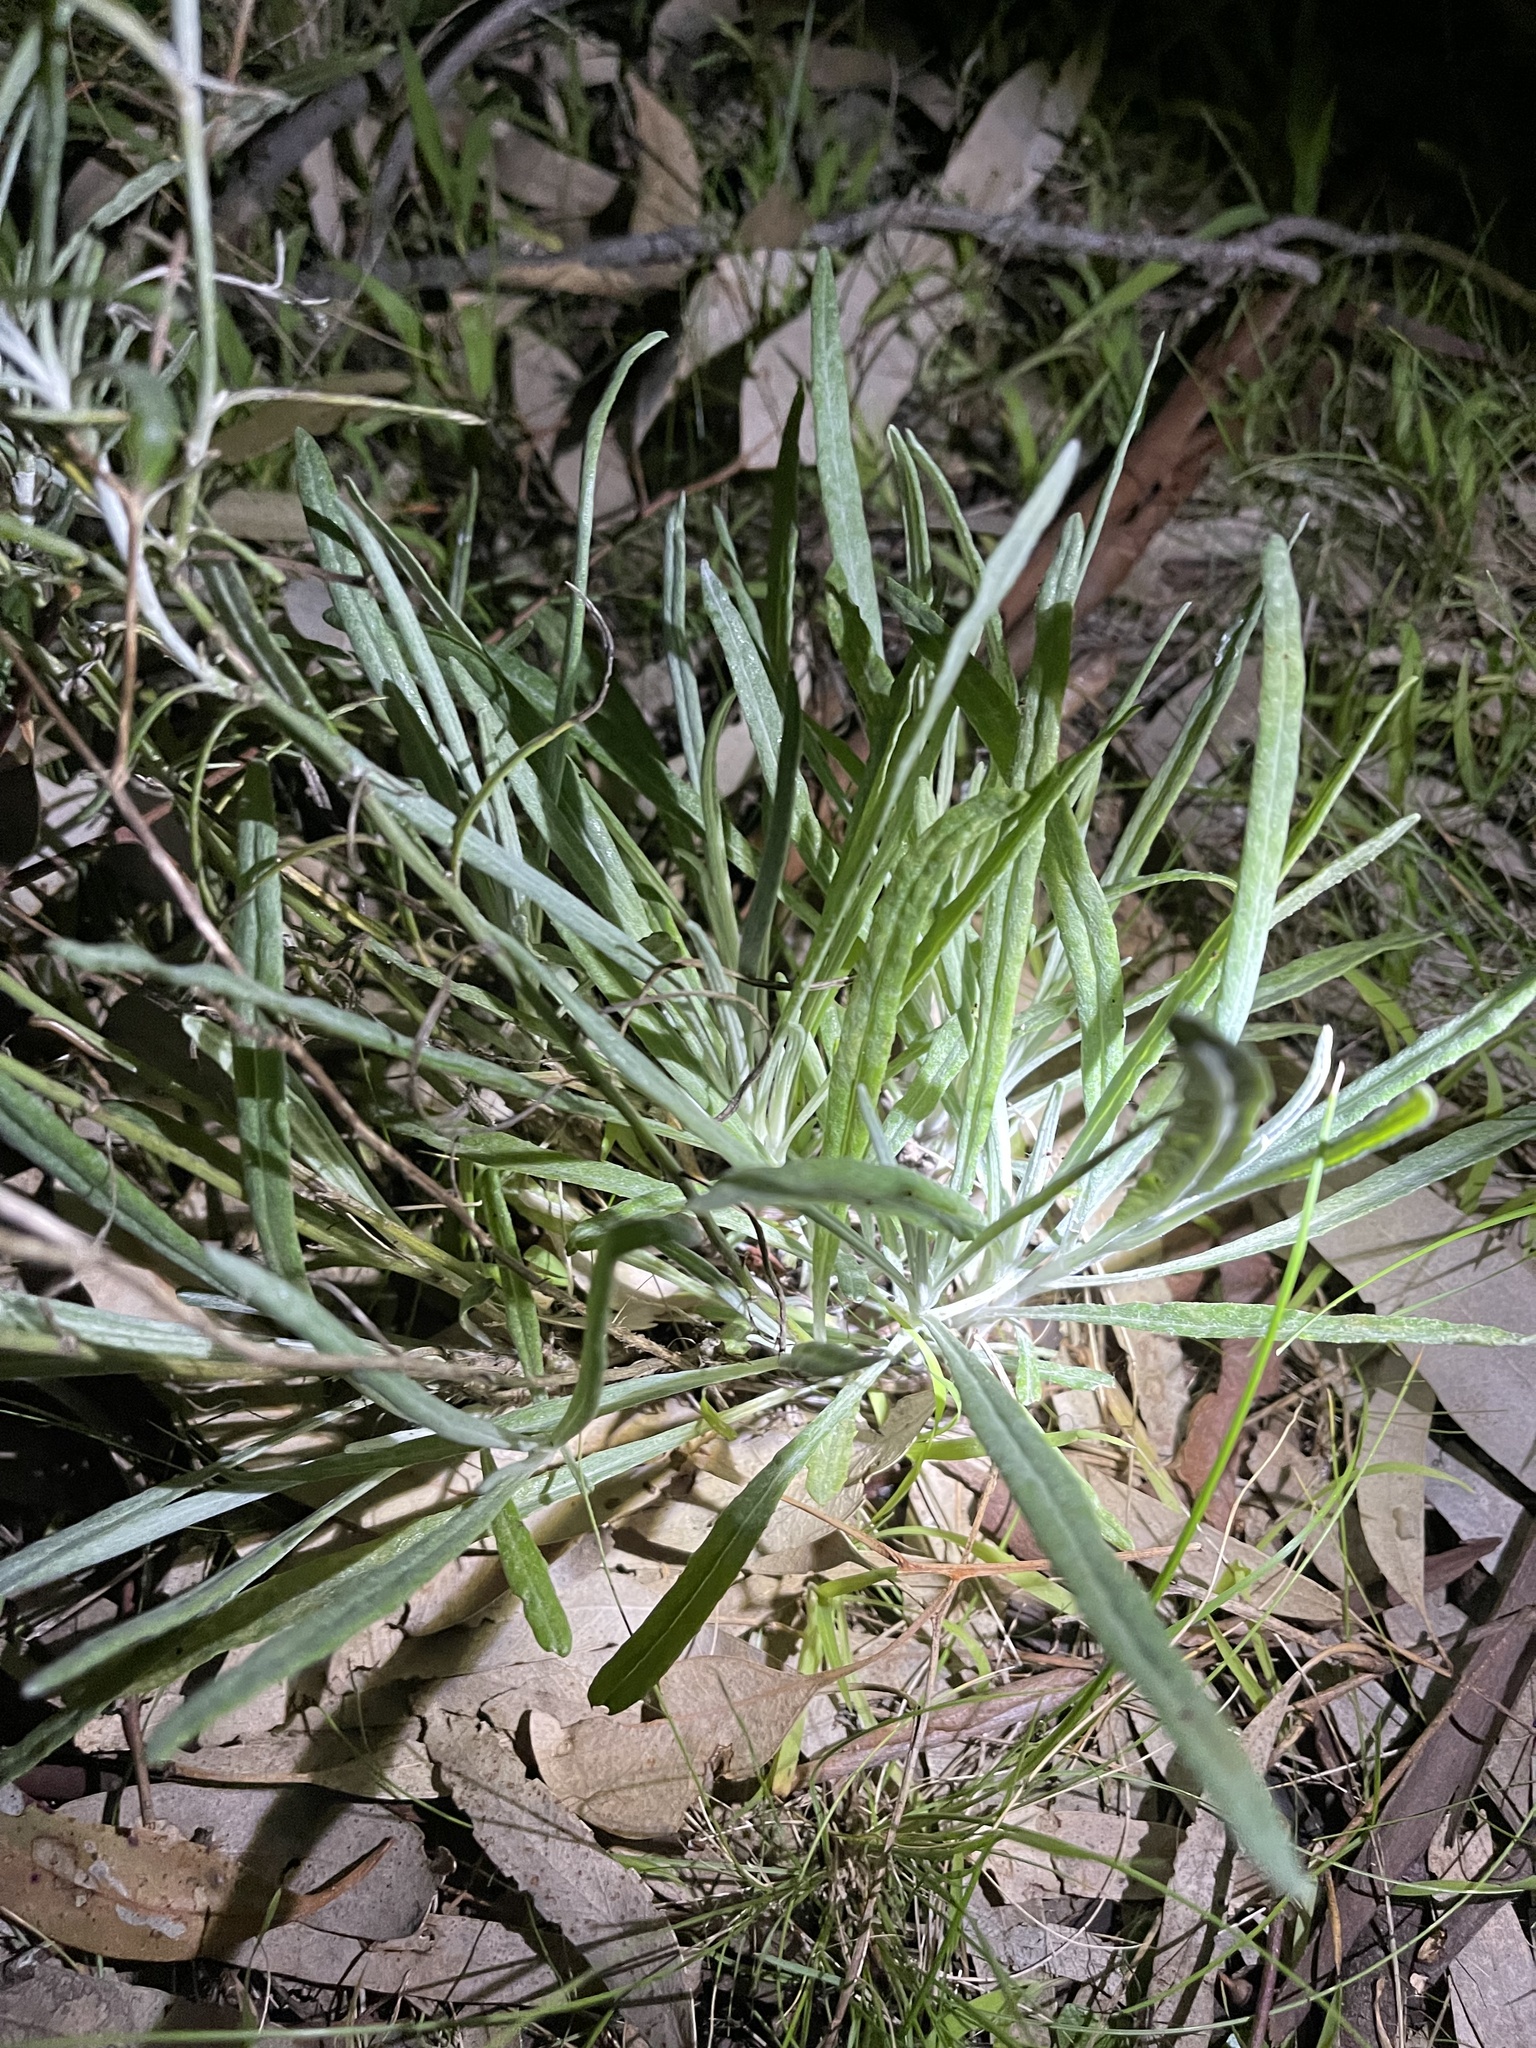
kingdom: Plantae
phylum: Tracheophyta
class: Magnoliopsida
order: Asterales
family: Asteraceae
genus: Senecio
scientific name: Senecio quadridentatus
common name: Cotton fireweed
